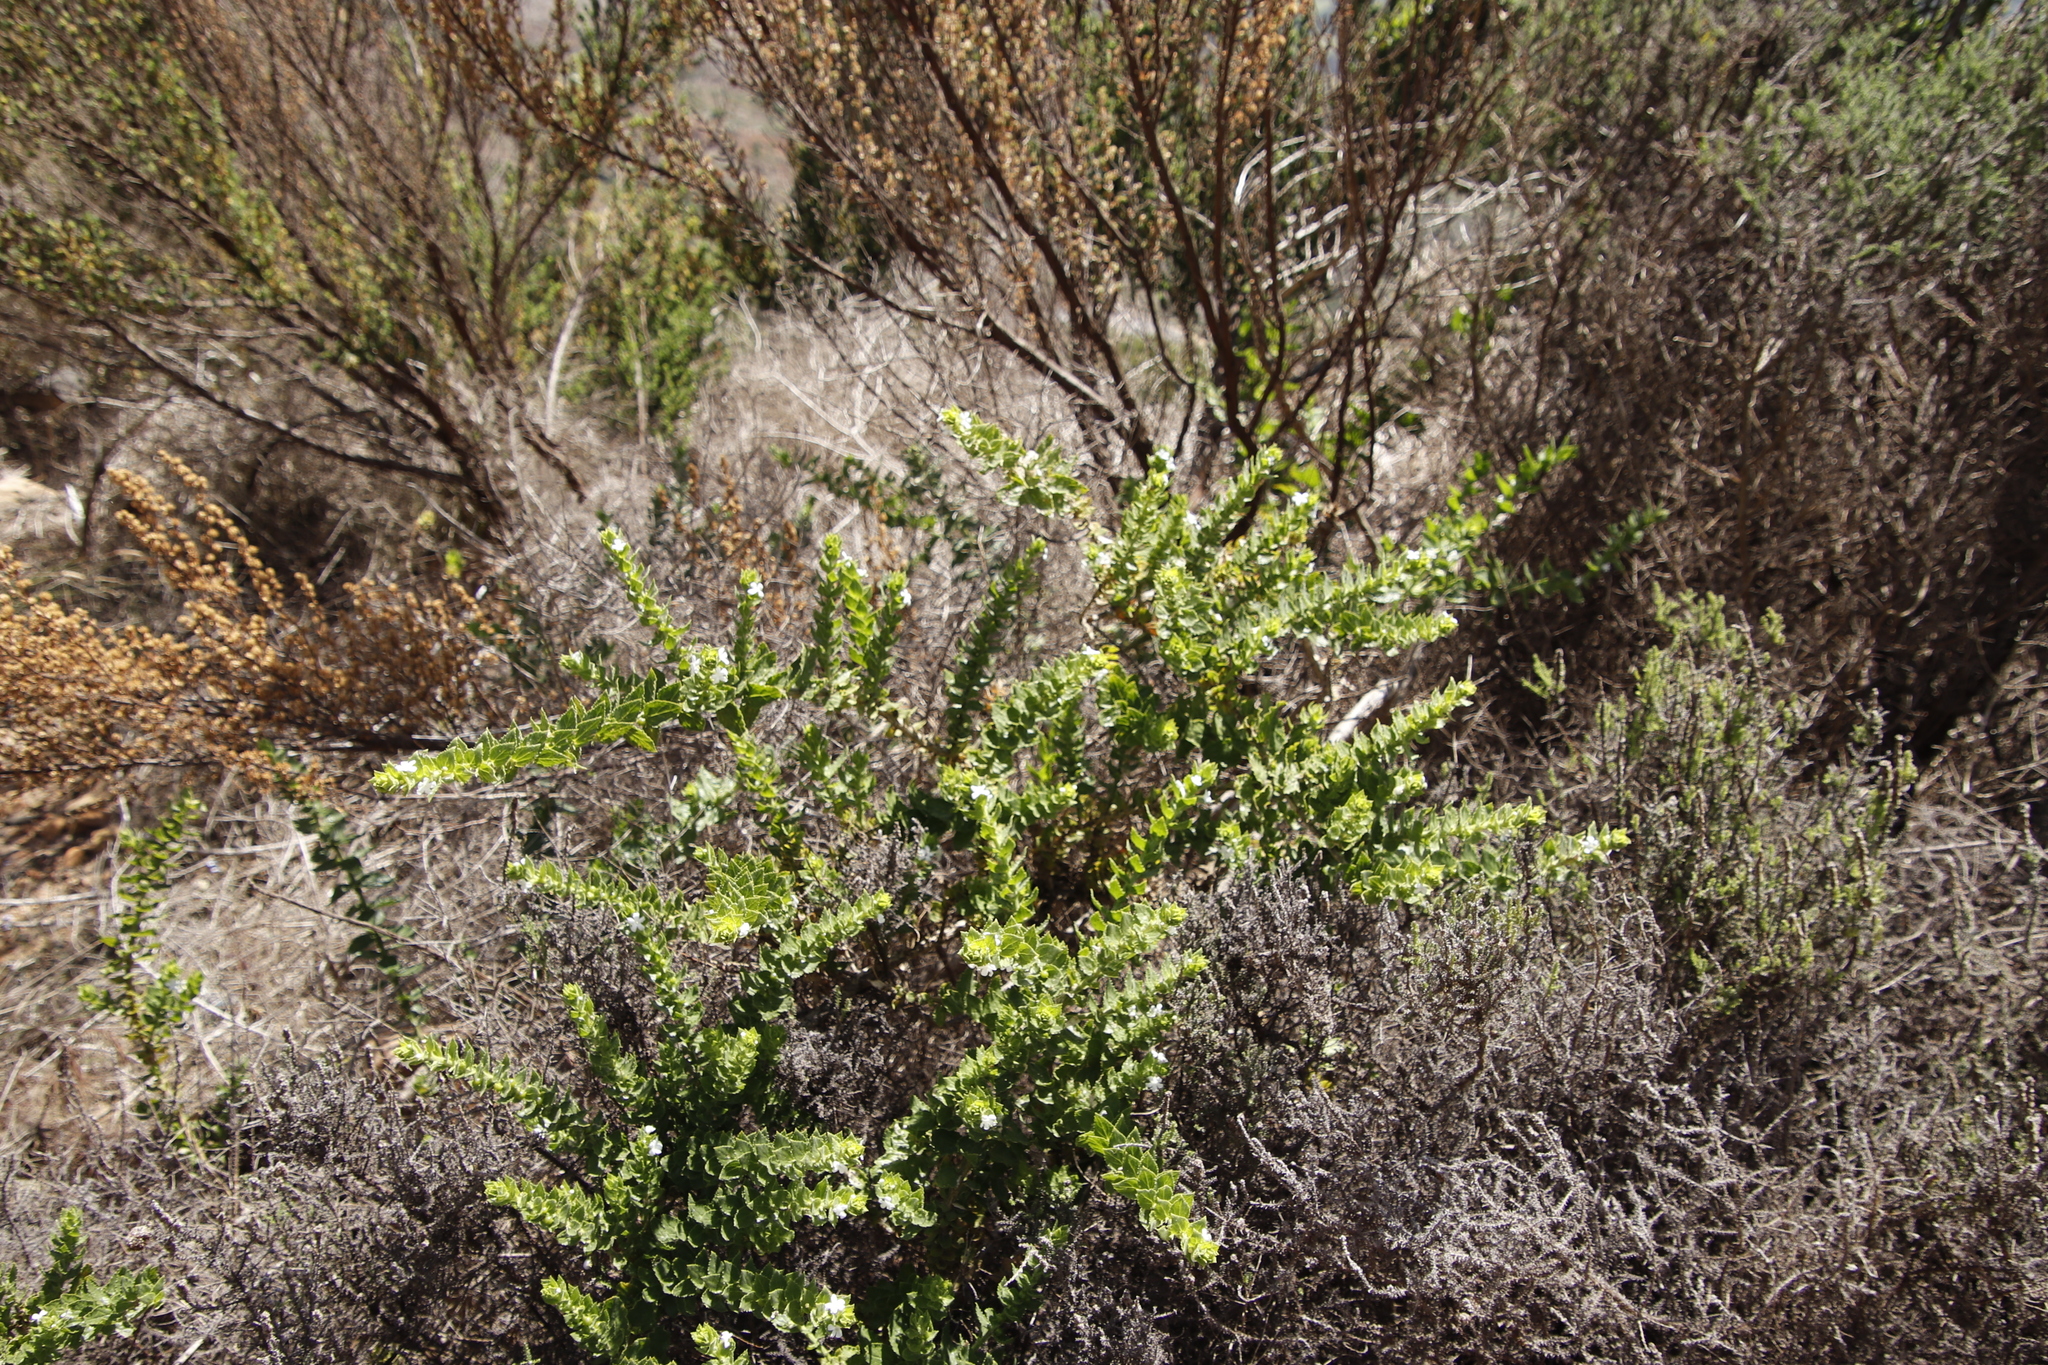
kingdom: Plantae
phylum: Tracheophyta
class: Magnoliopsida
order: Lamiales
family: Scrophulariaceae
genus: Oftia
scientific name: Oftia africana
